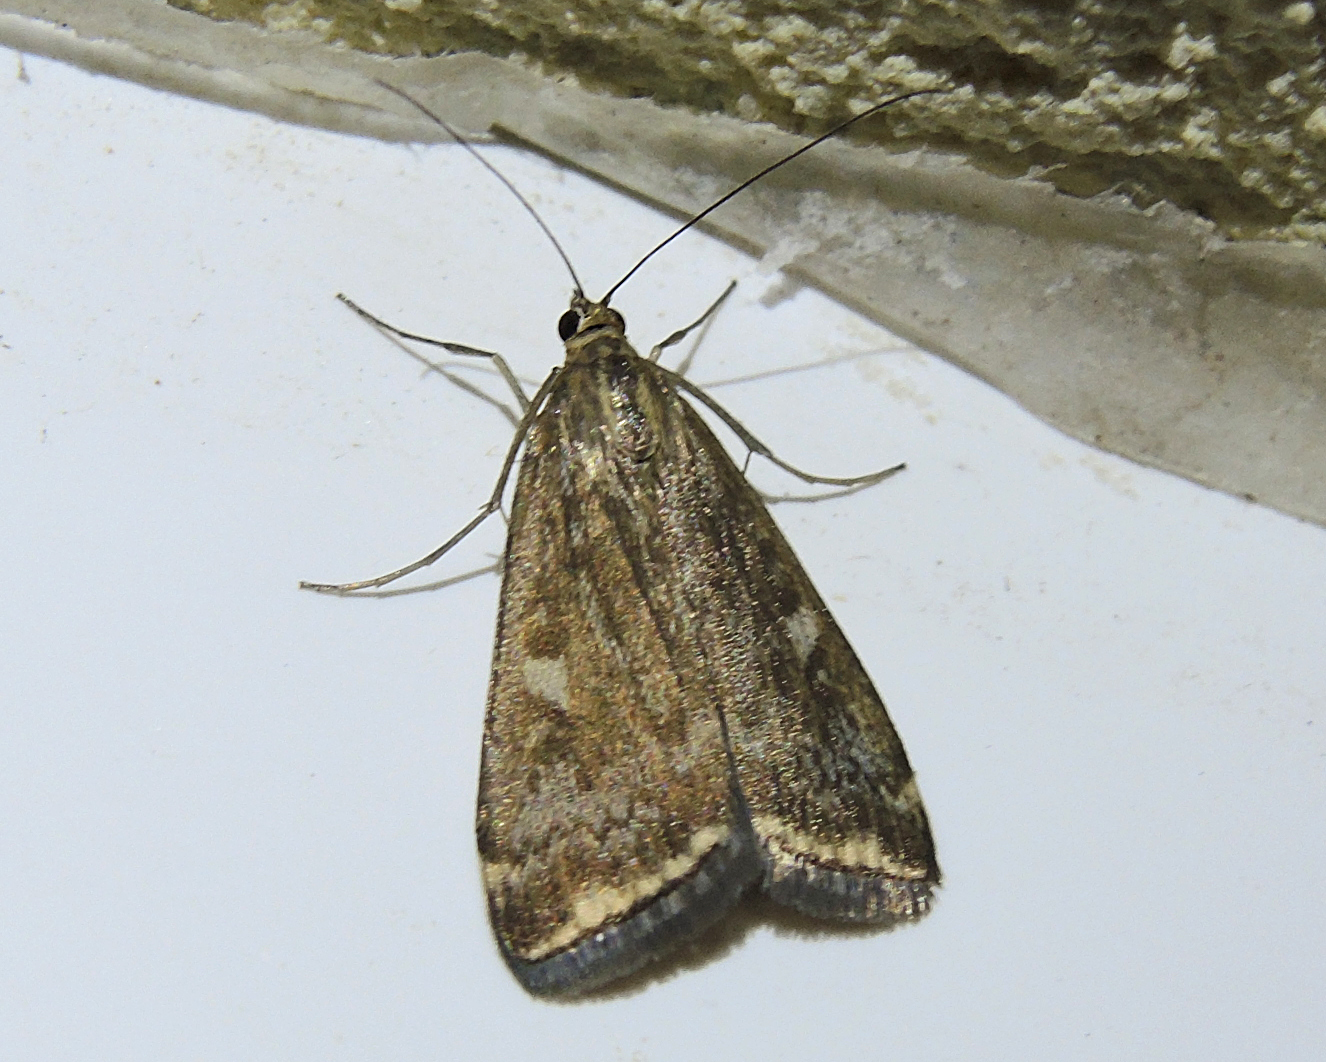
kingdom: Animalia
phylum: Arthropoda
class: Insecta
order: Lepidoptera
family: Crambidae
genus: Loxostege
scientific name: Loxostege sticticalis
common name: Crambid moth
